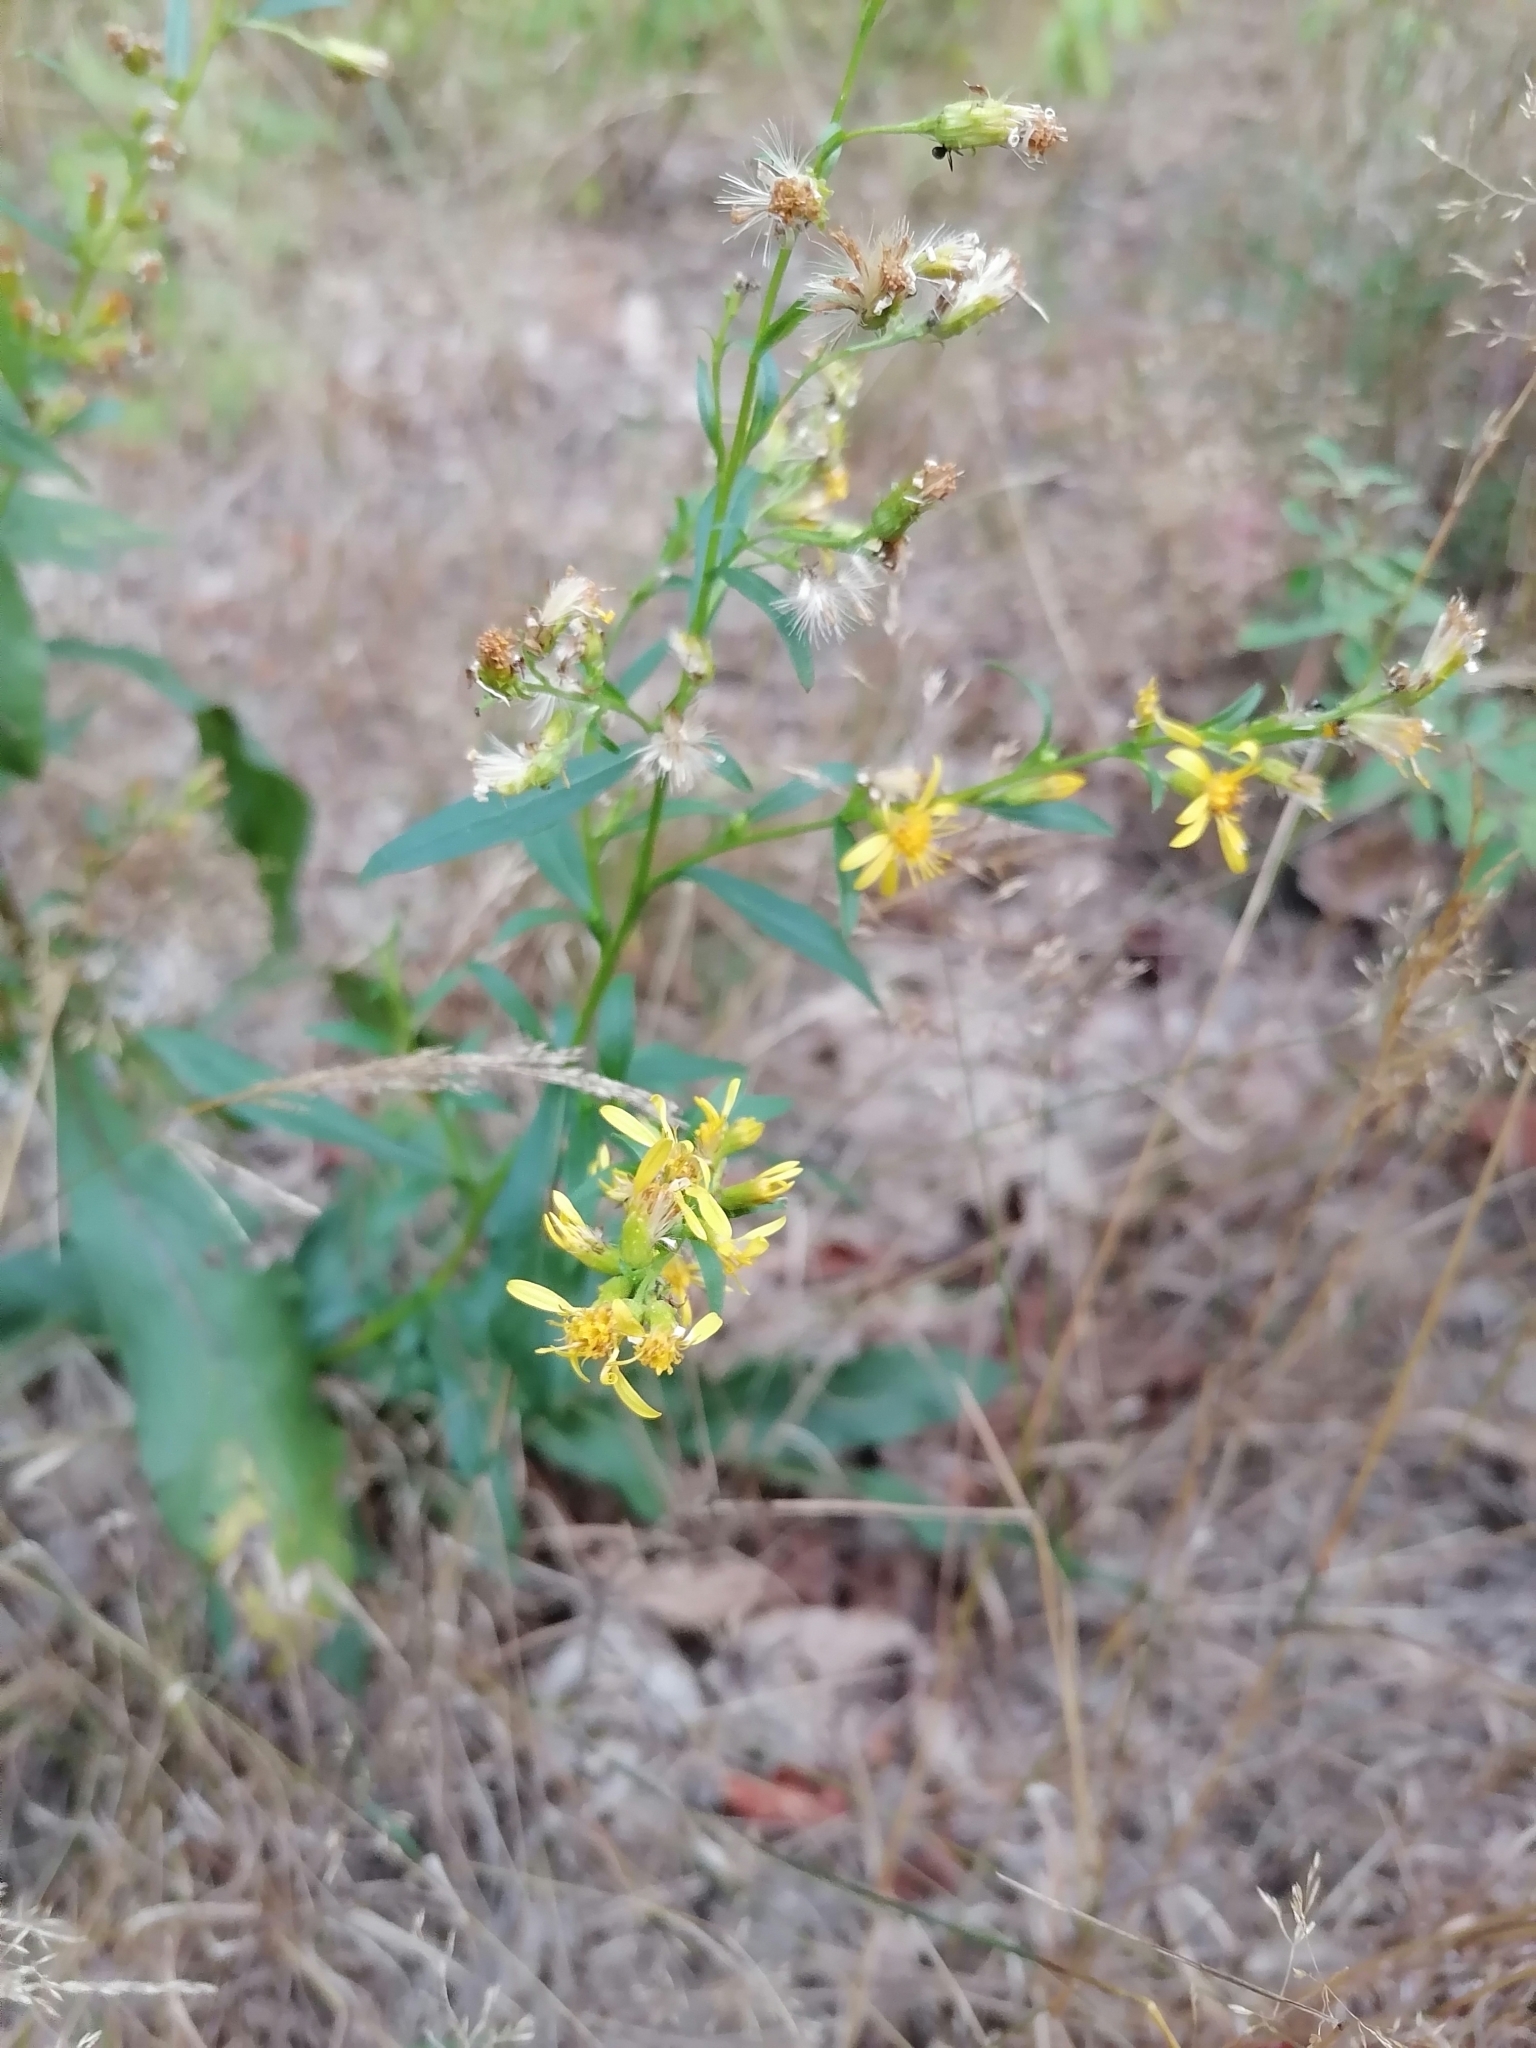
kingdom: Plantae
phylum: Tracheophyta
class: Magnoliopsida
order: Asterales
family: Asteraceae
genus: Solidago
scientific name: Solidago virgaurea
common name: Goldenrod
